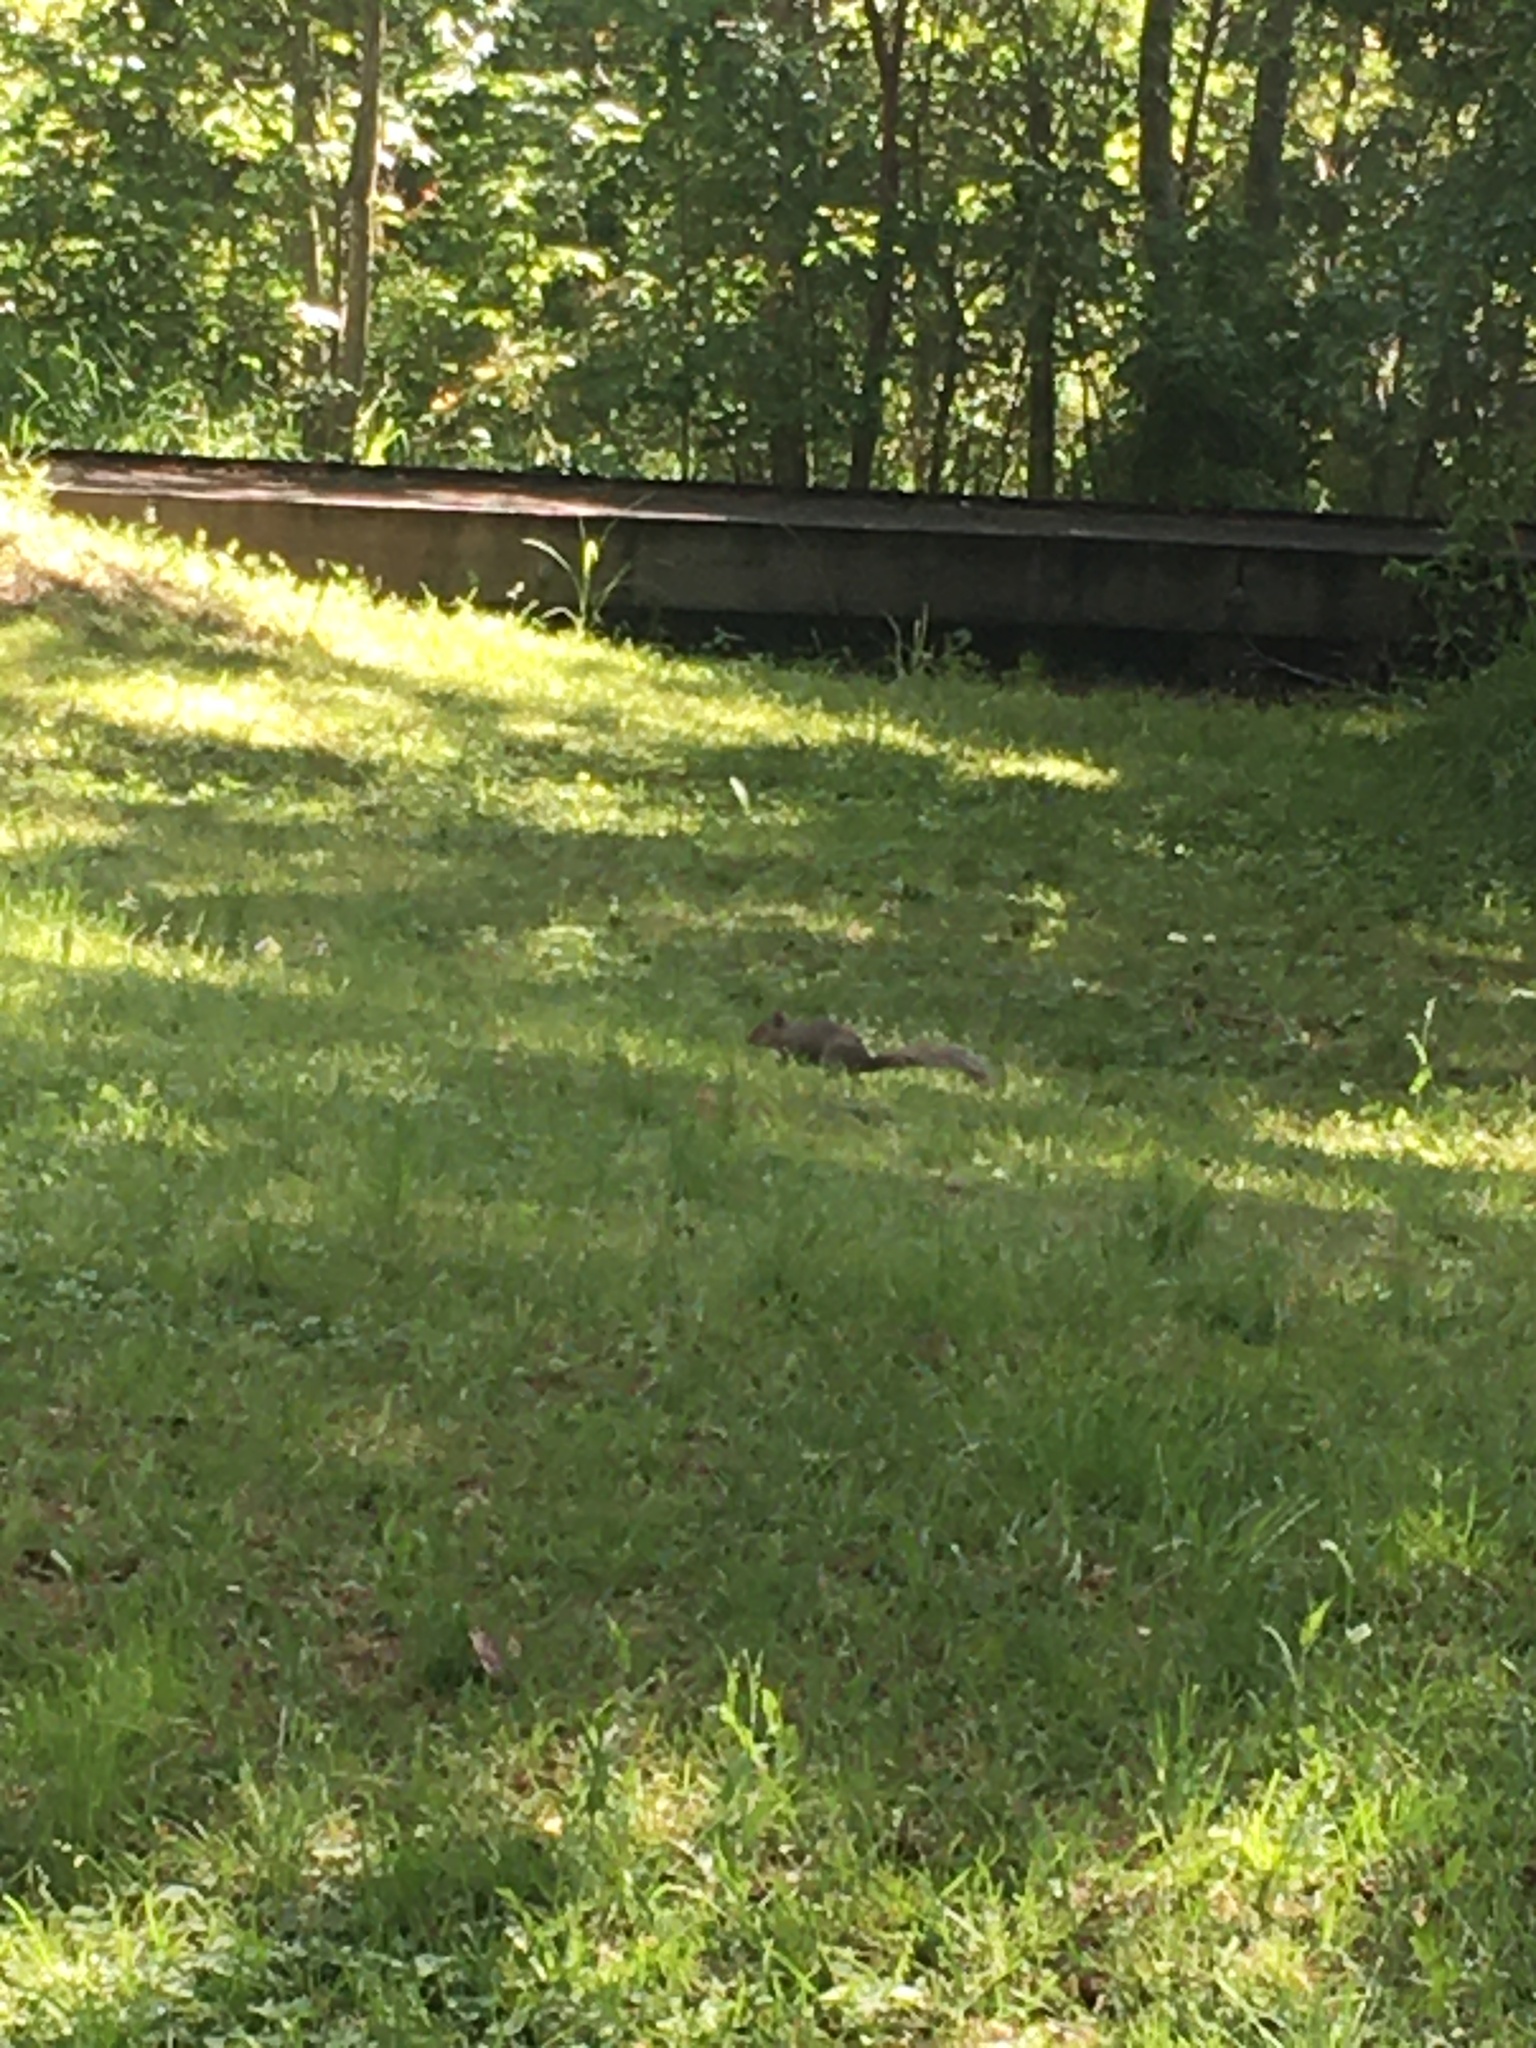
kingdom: Animalia
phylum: Chordata
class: Mammalia
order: Rodentia
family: Sciuridae
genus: Sciurus
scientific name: Sciurus carolinensis
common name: Eastern gray squirrel
